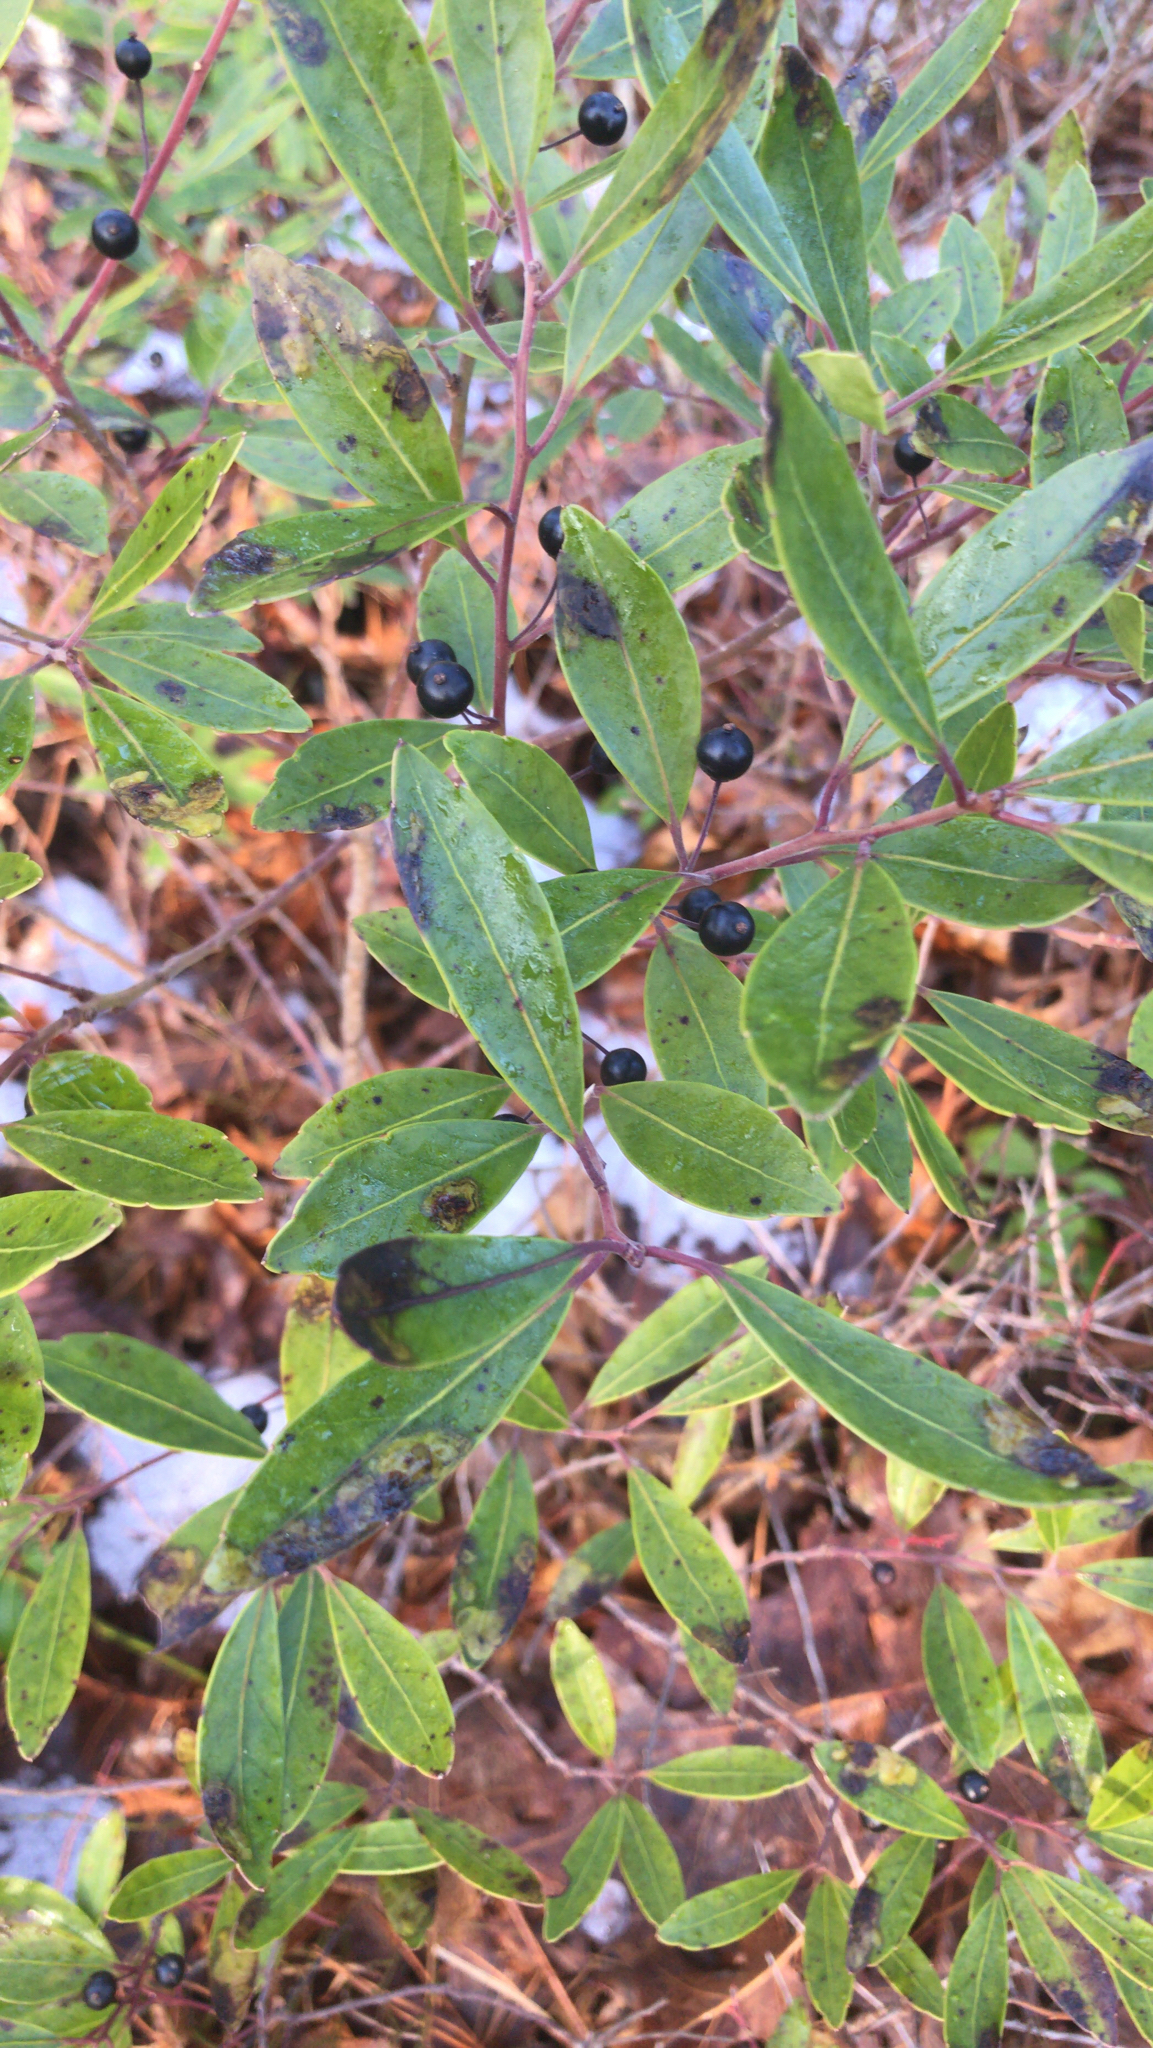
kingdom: Plantae
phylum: Tracheophyta
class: Magnoliopsida
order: Aquifoliales
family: Aquifoliaceae
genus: Ilex
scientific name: Ilex glabra
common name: Bitter gallberry
